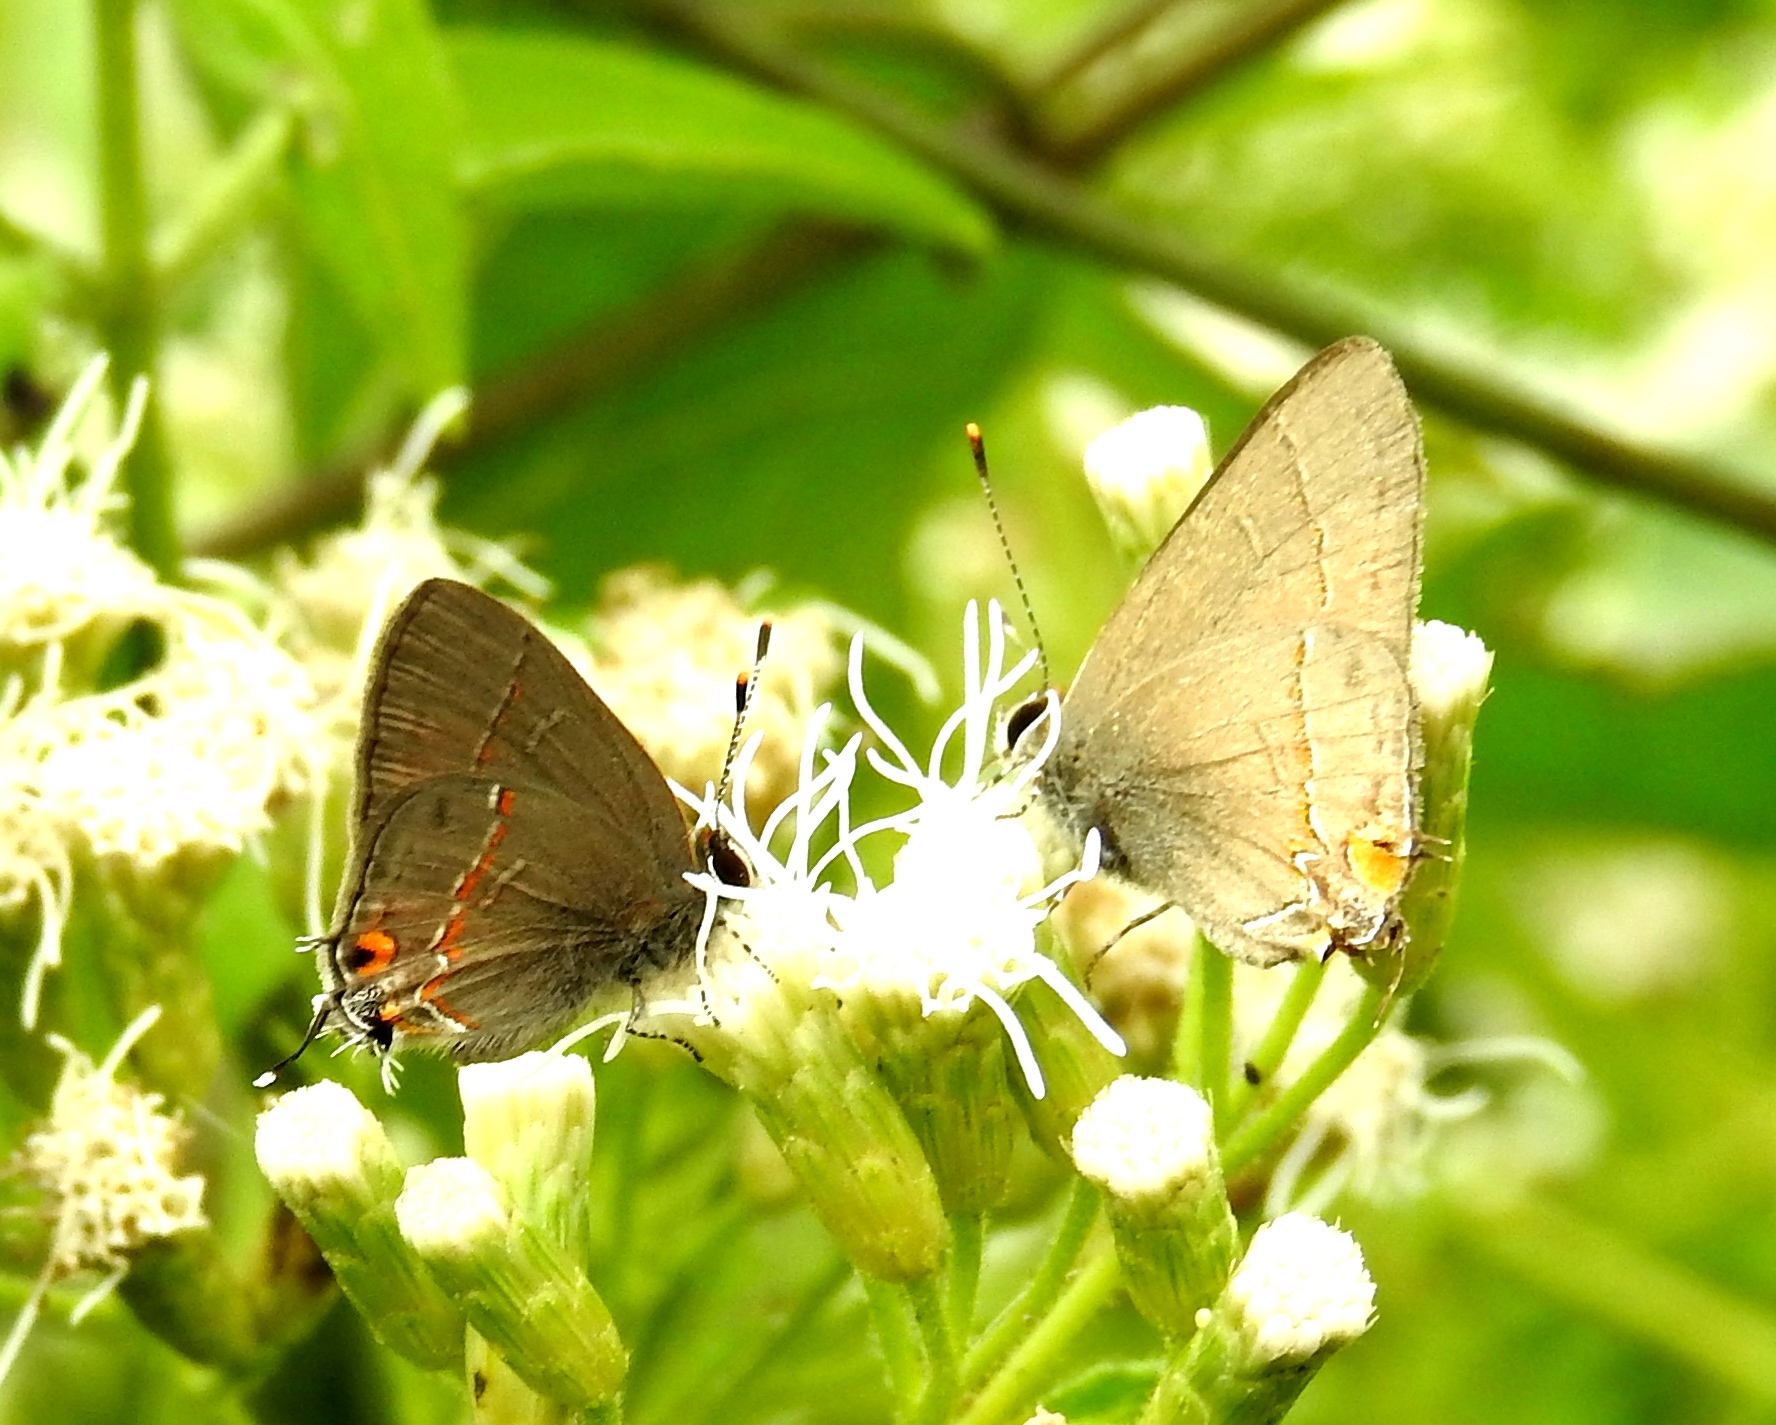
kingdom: Animalia
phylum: Arthropoda
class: Insecta
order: Lepidoptera
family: Lycaenidae
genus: Electrostrymon
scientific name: Electrostrymon endymion
